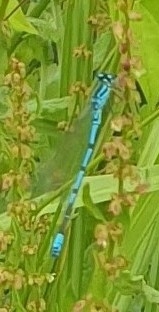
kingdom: Animalia
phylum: Arthropoda
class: Insecta
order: Odonata
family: Coenagrionidae
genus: Coenagrion
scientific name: Coenagrion puella
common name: Azure damselfly
